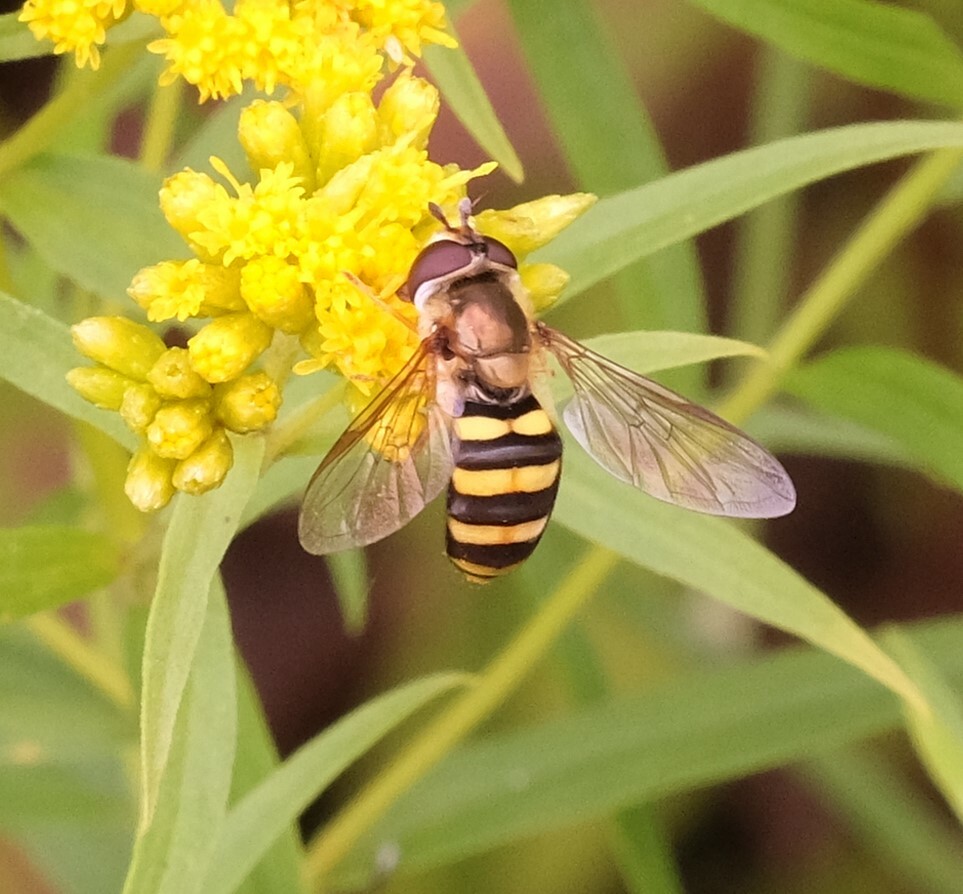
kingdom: Animalia
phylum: Arthropoda
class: Insecta
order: Diptera
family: Syrphidae
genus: Eupeodes
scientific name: Eupeodes
